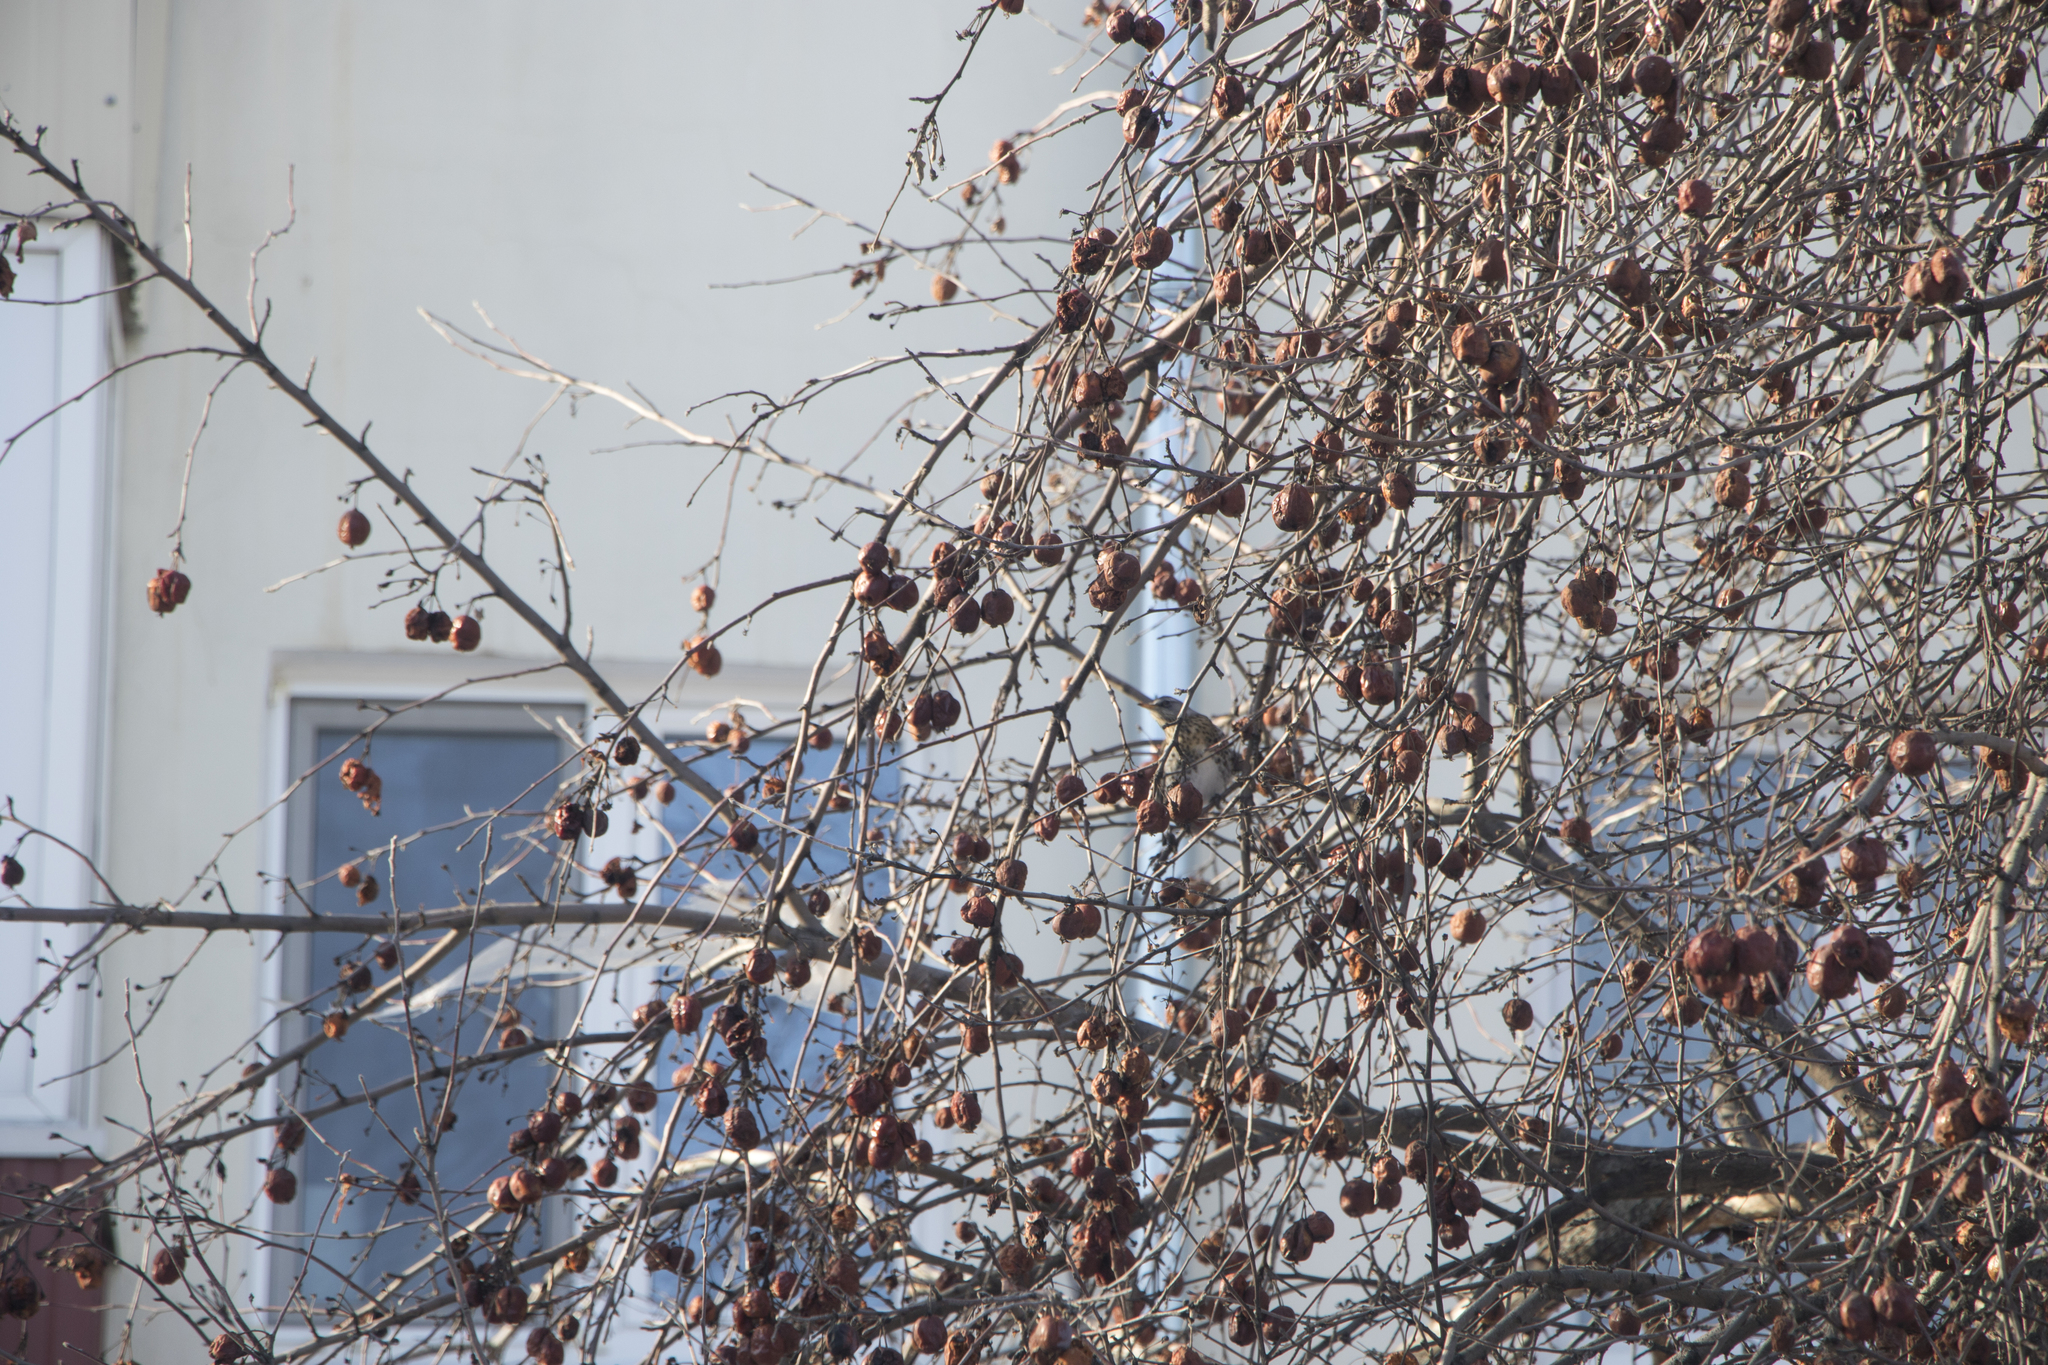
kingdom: Animalia
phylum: Chordata
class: Aves
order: Passeriformes
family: Turdidae
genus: Turdus
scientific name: Turdus pilaris
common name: Fieldfare
